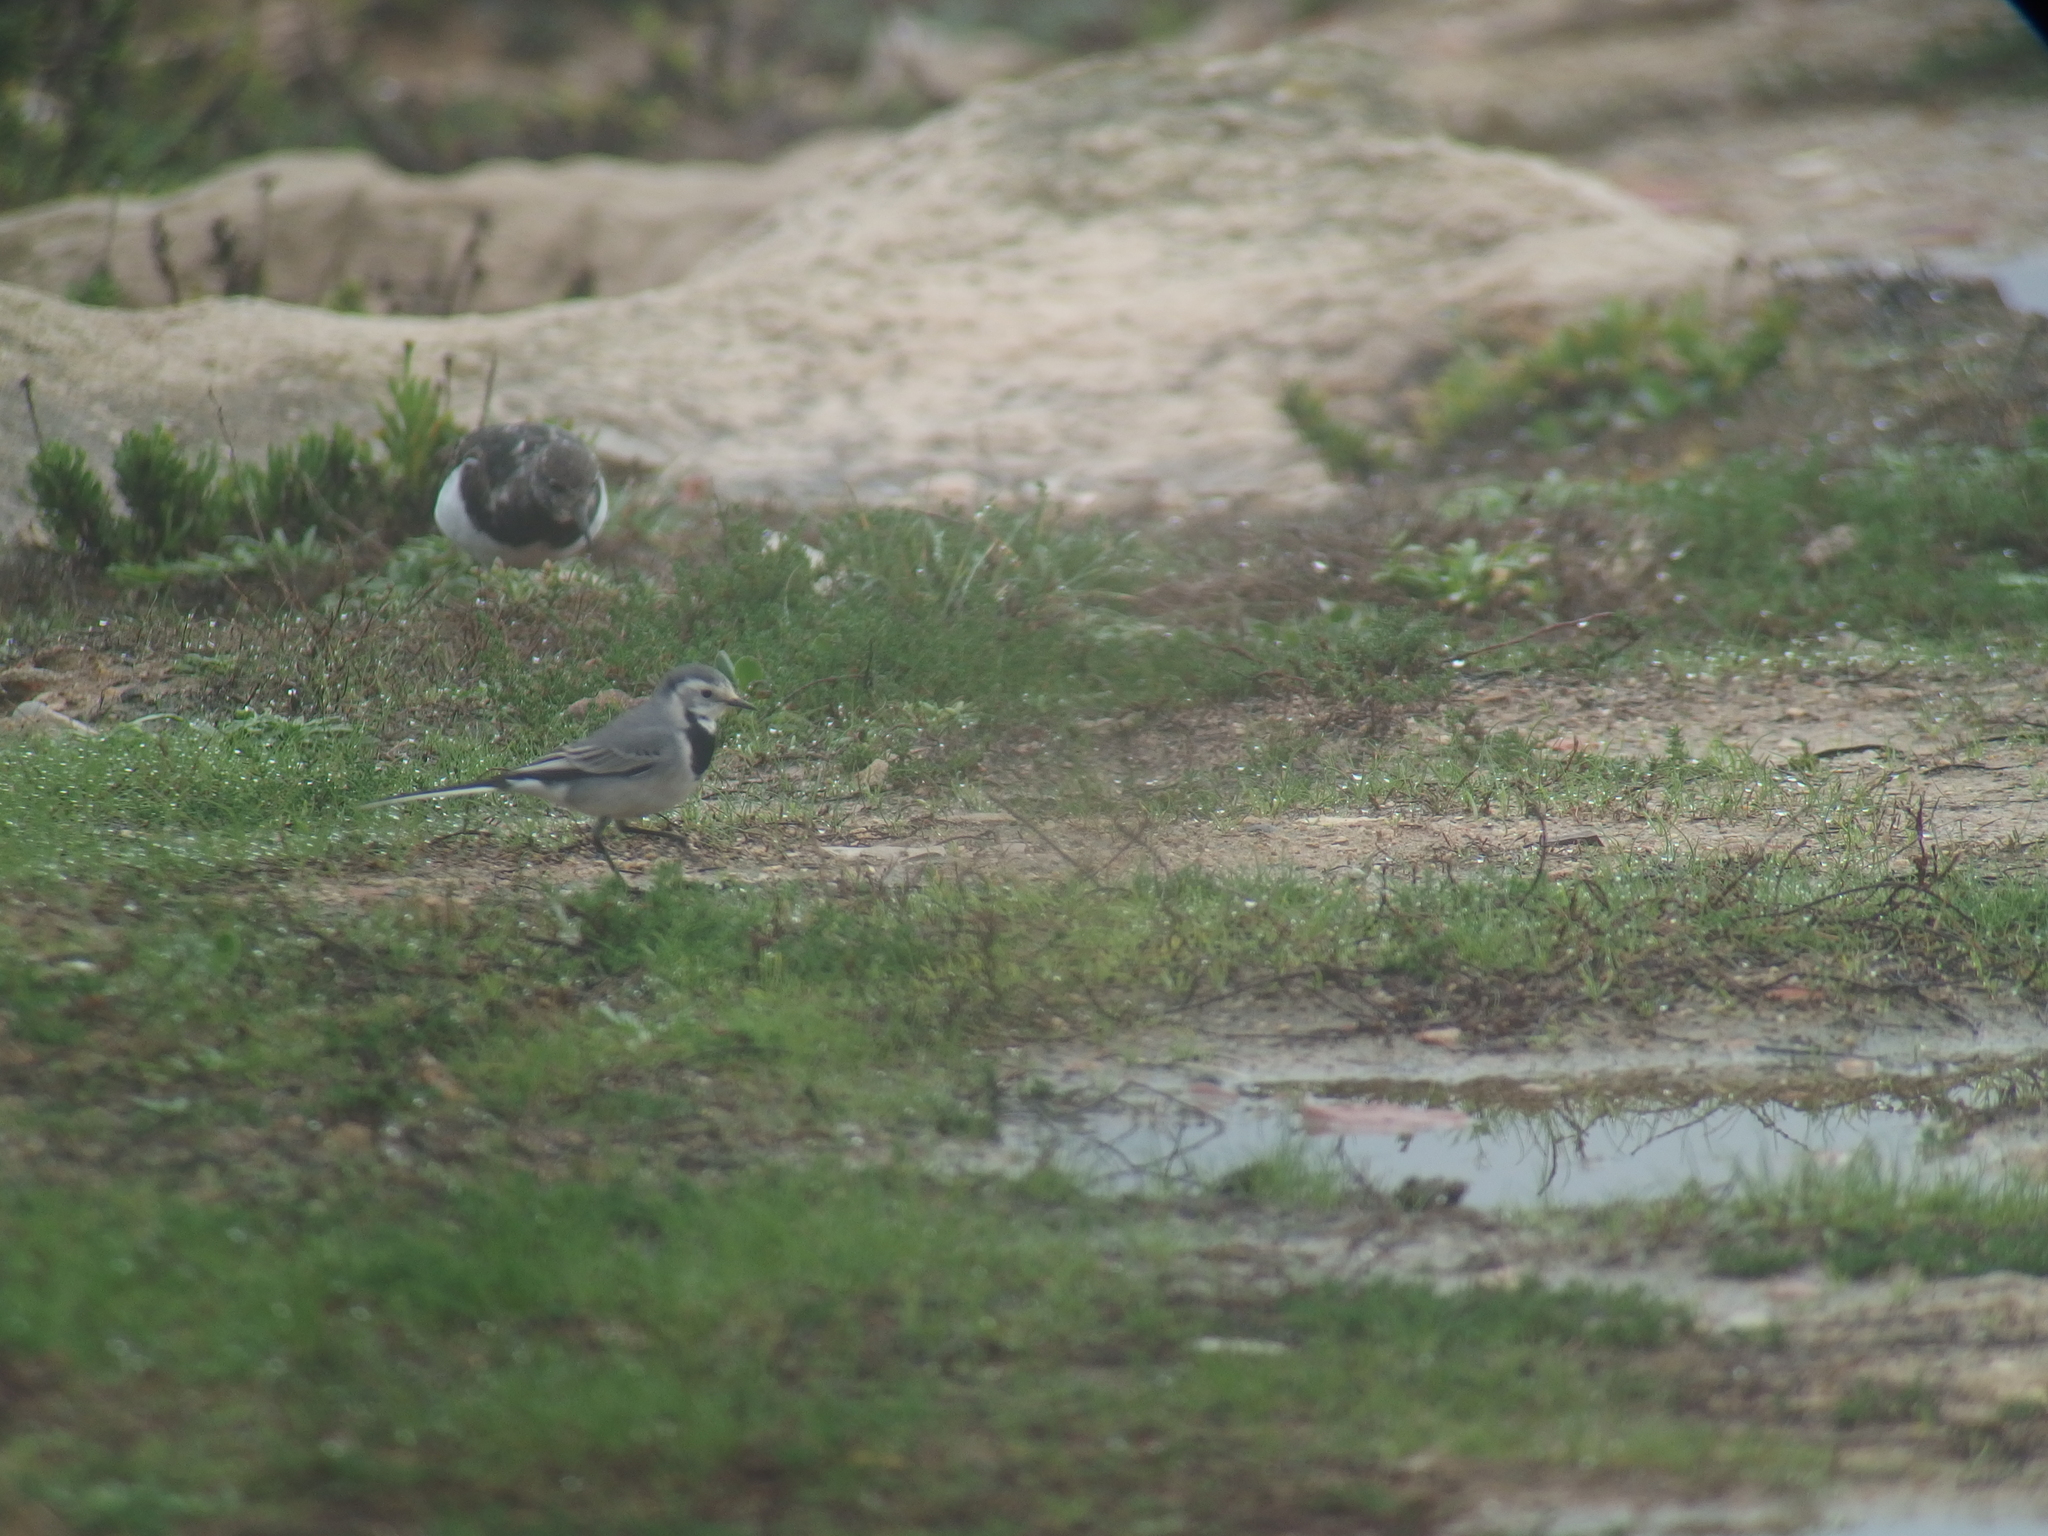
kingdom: Animalia
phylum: Chordata
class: Aves
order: Passeriformes
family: Motacillidae
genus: Motacilla
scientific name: Motacilla alba
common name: White wagtail
